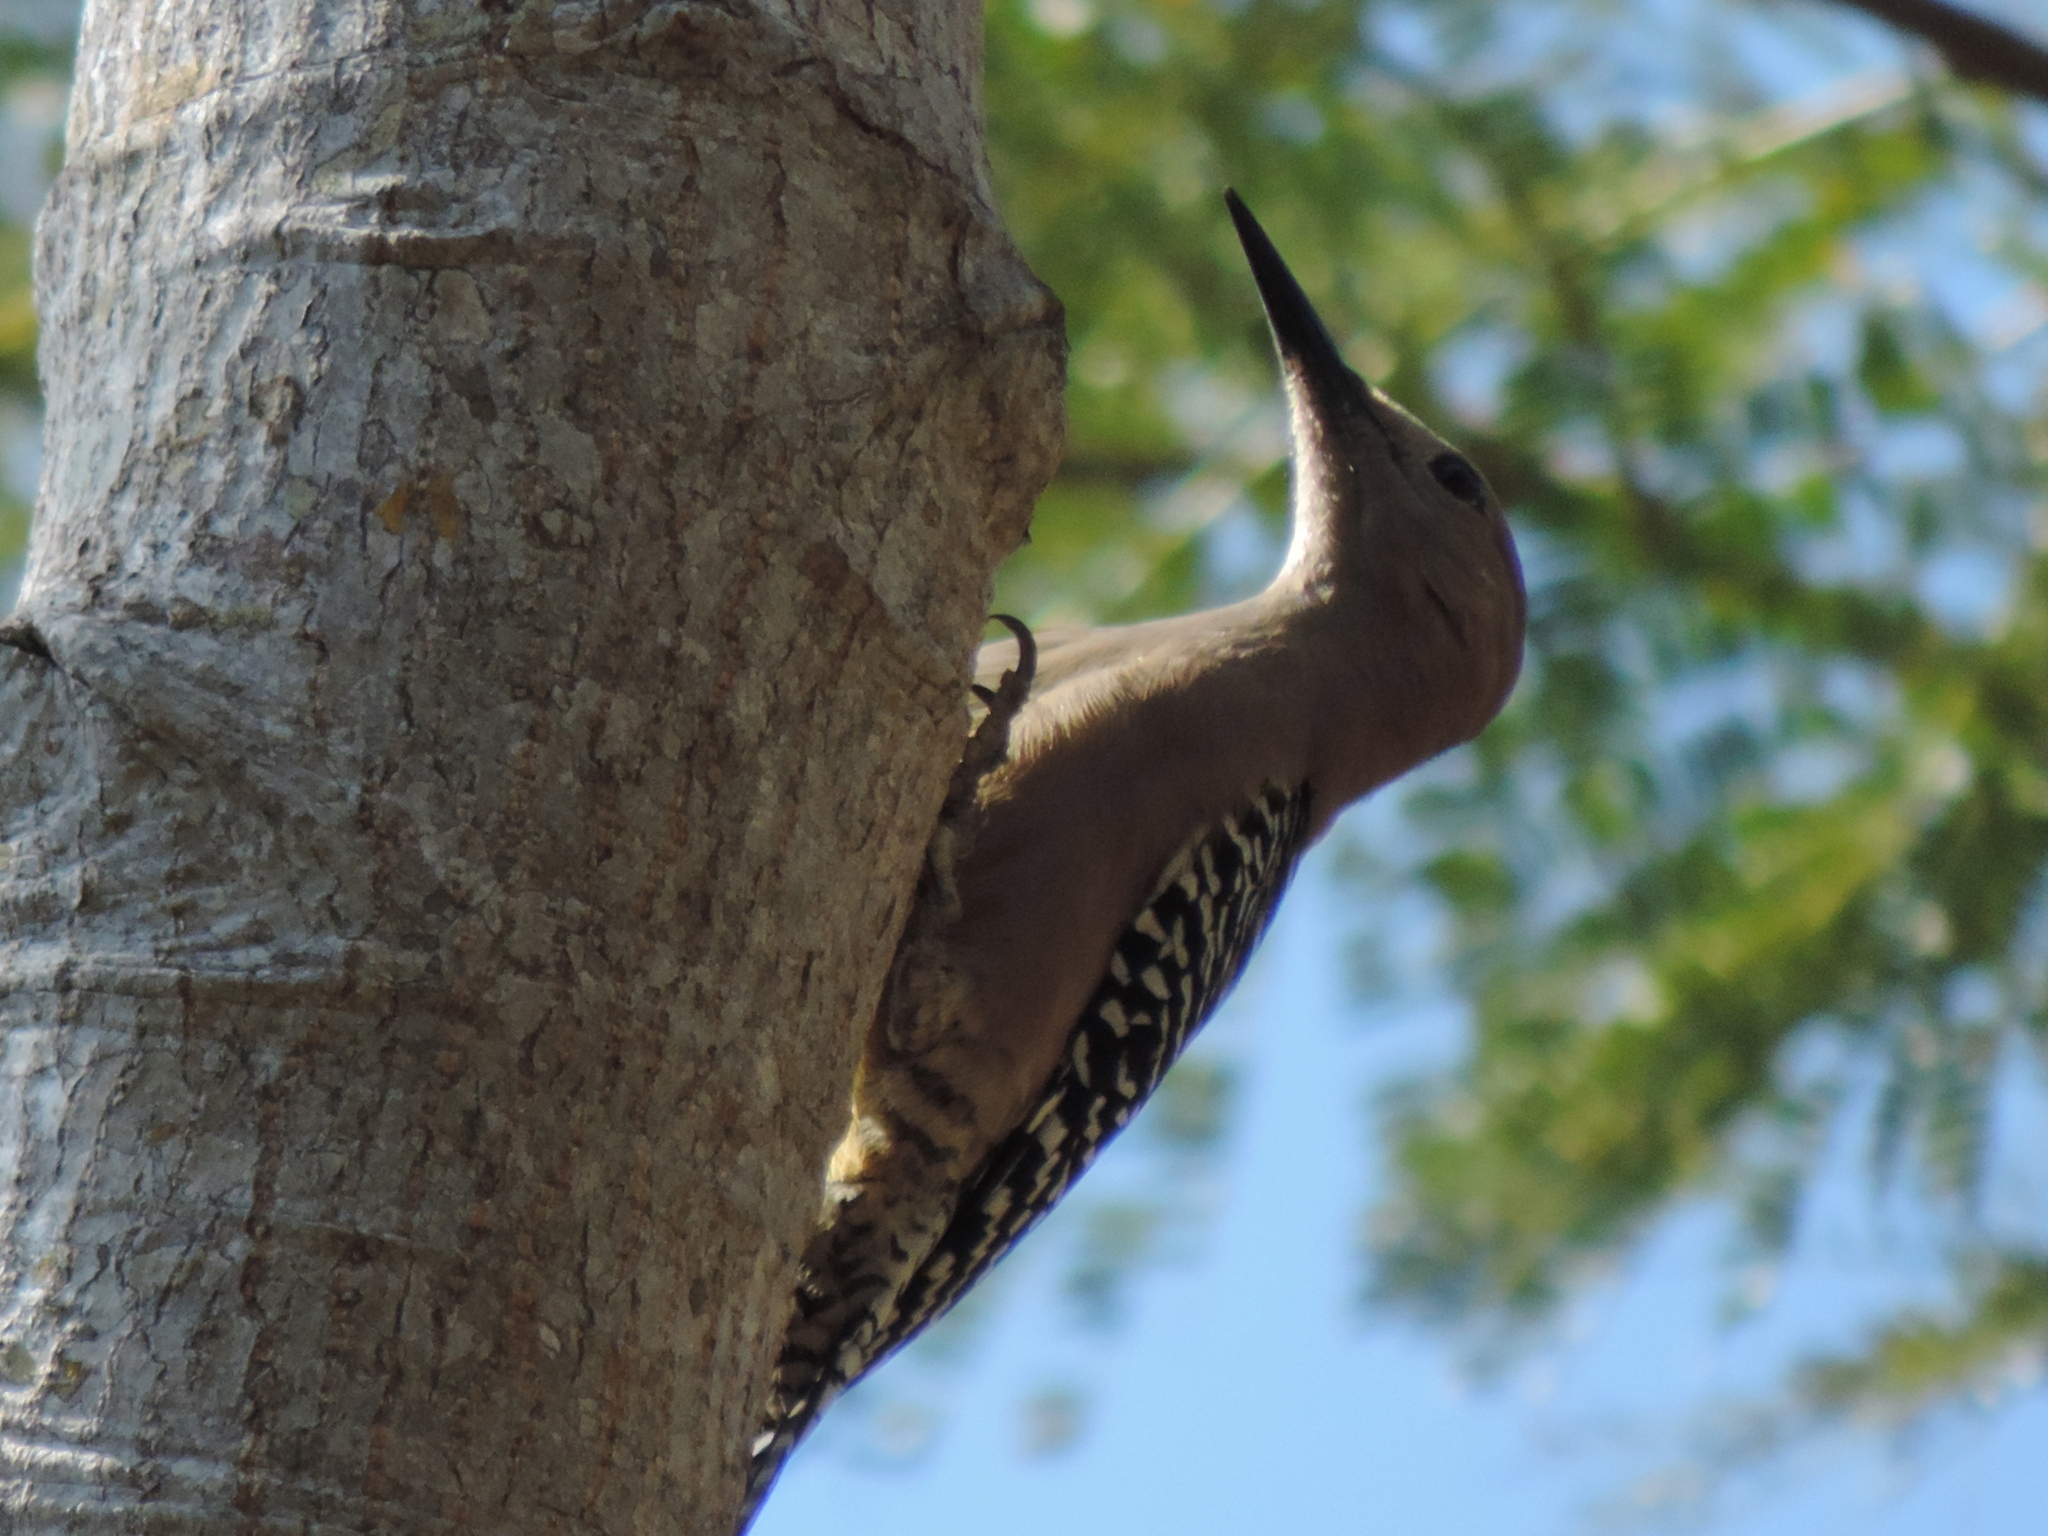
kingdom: Animalia
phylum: Chordata
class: Aves
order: Piciformes
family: Picidae
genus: Melanerpes
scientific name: Melanerpes uropygialis
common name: Gila woodpecker
